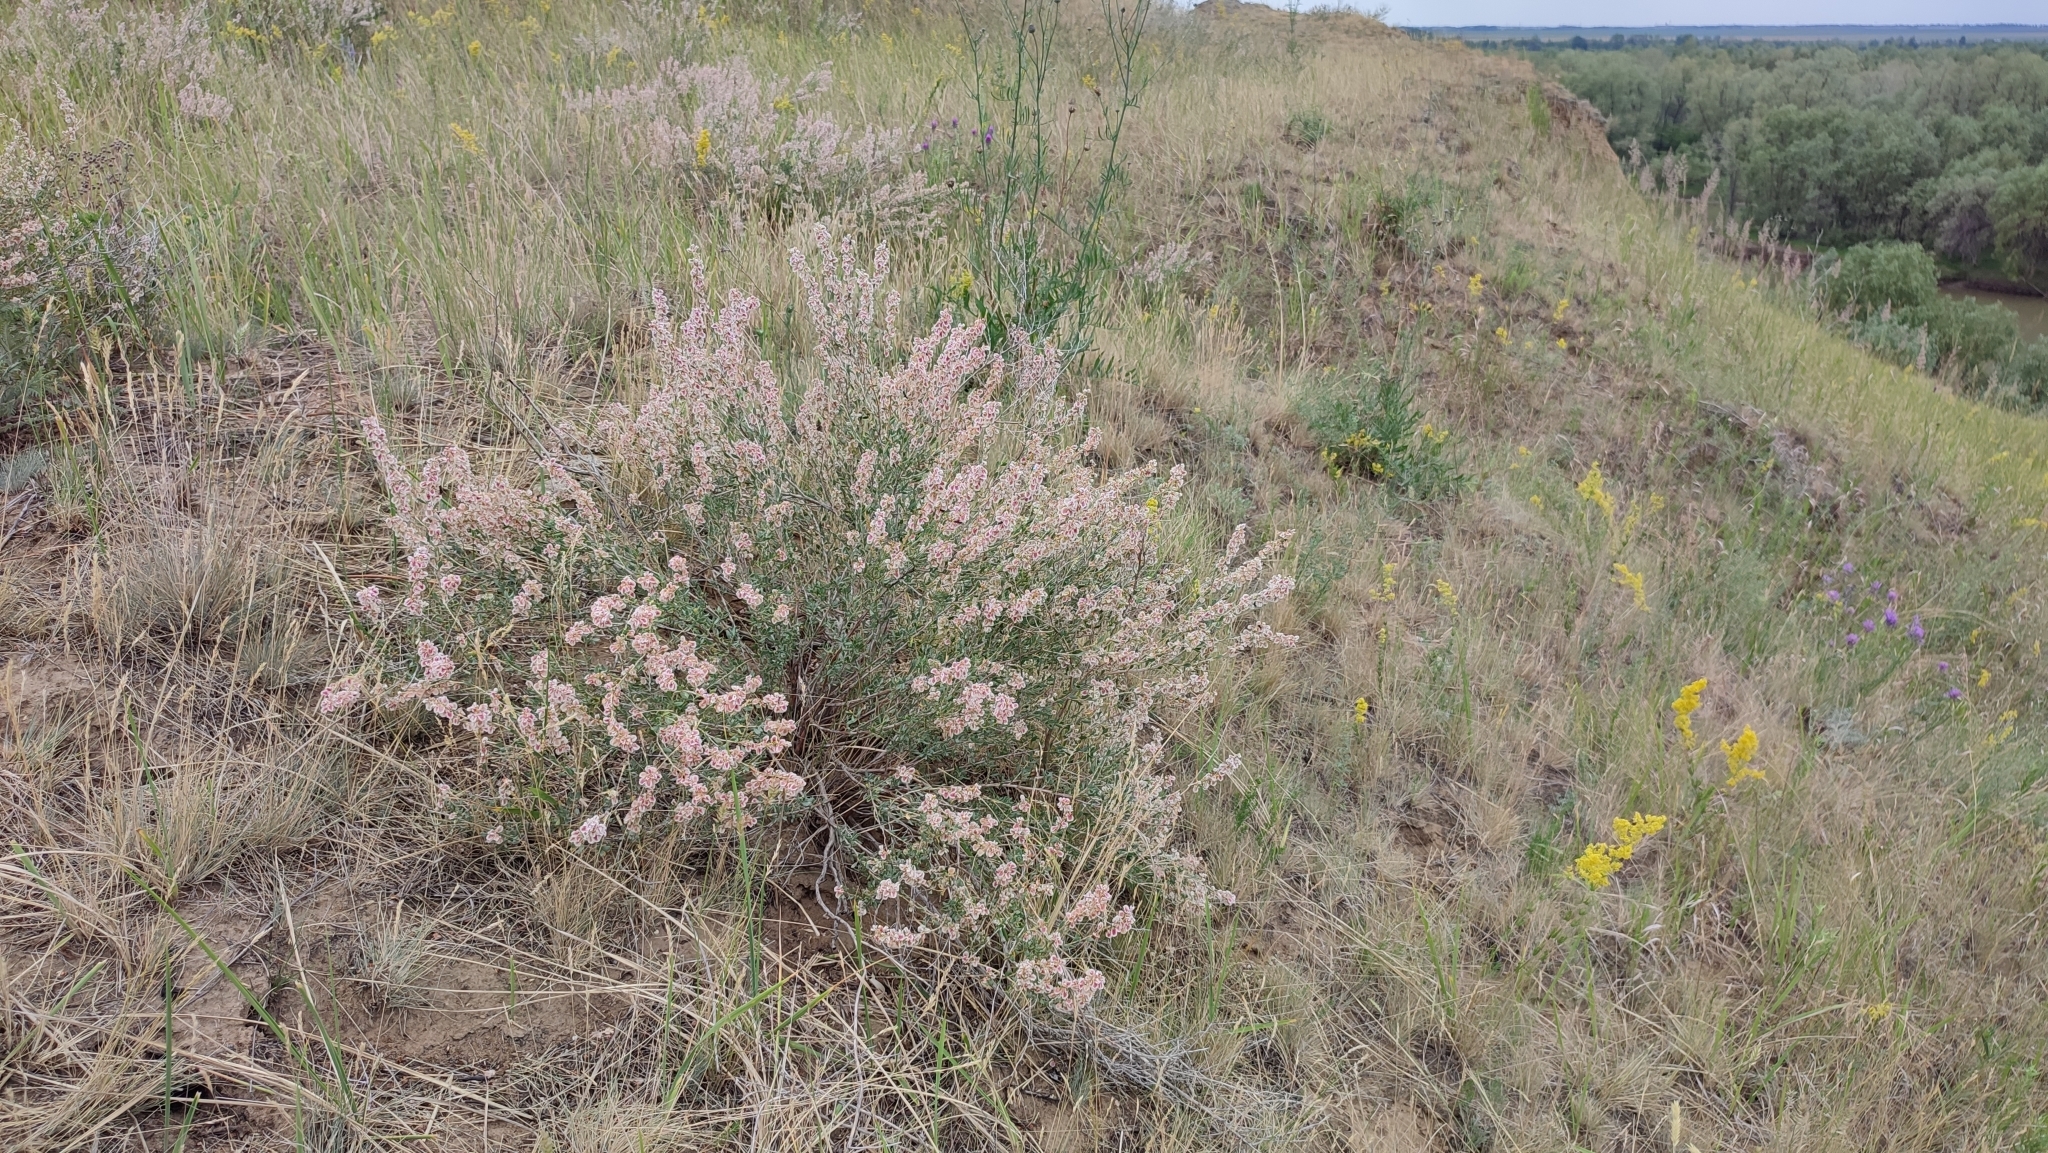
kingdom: Plantae
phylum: Tracheophyta
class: Magnoliopsida
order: Caryophyllales
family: Polygonaceae
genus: Atraphaxis
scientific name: Atraphaxis frutescens
